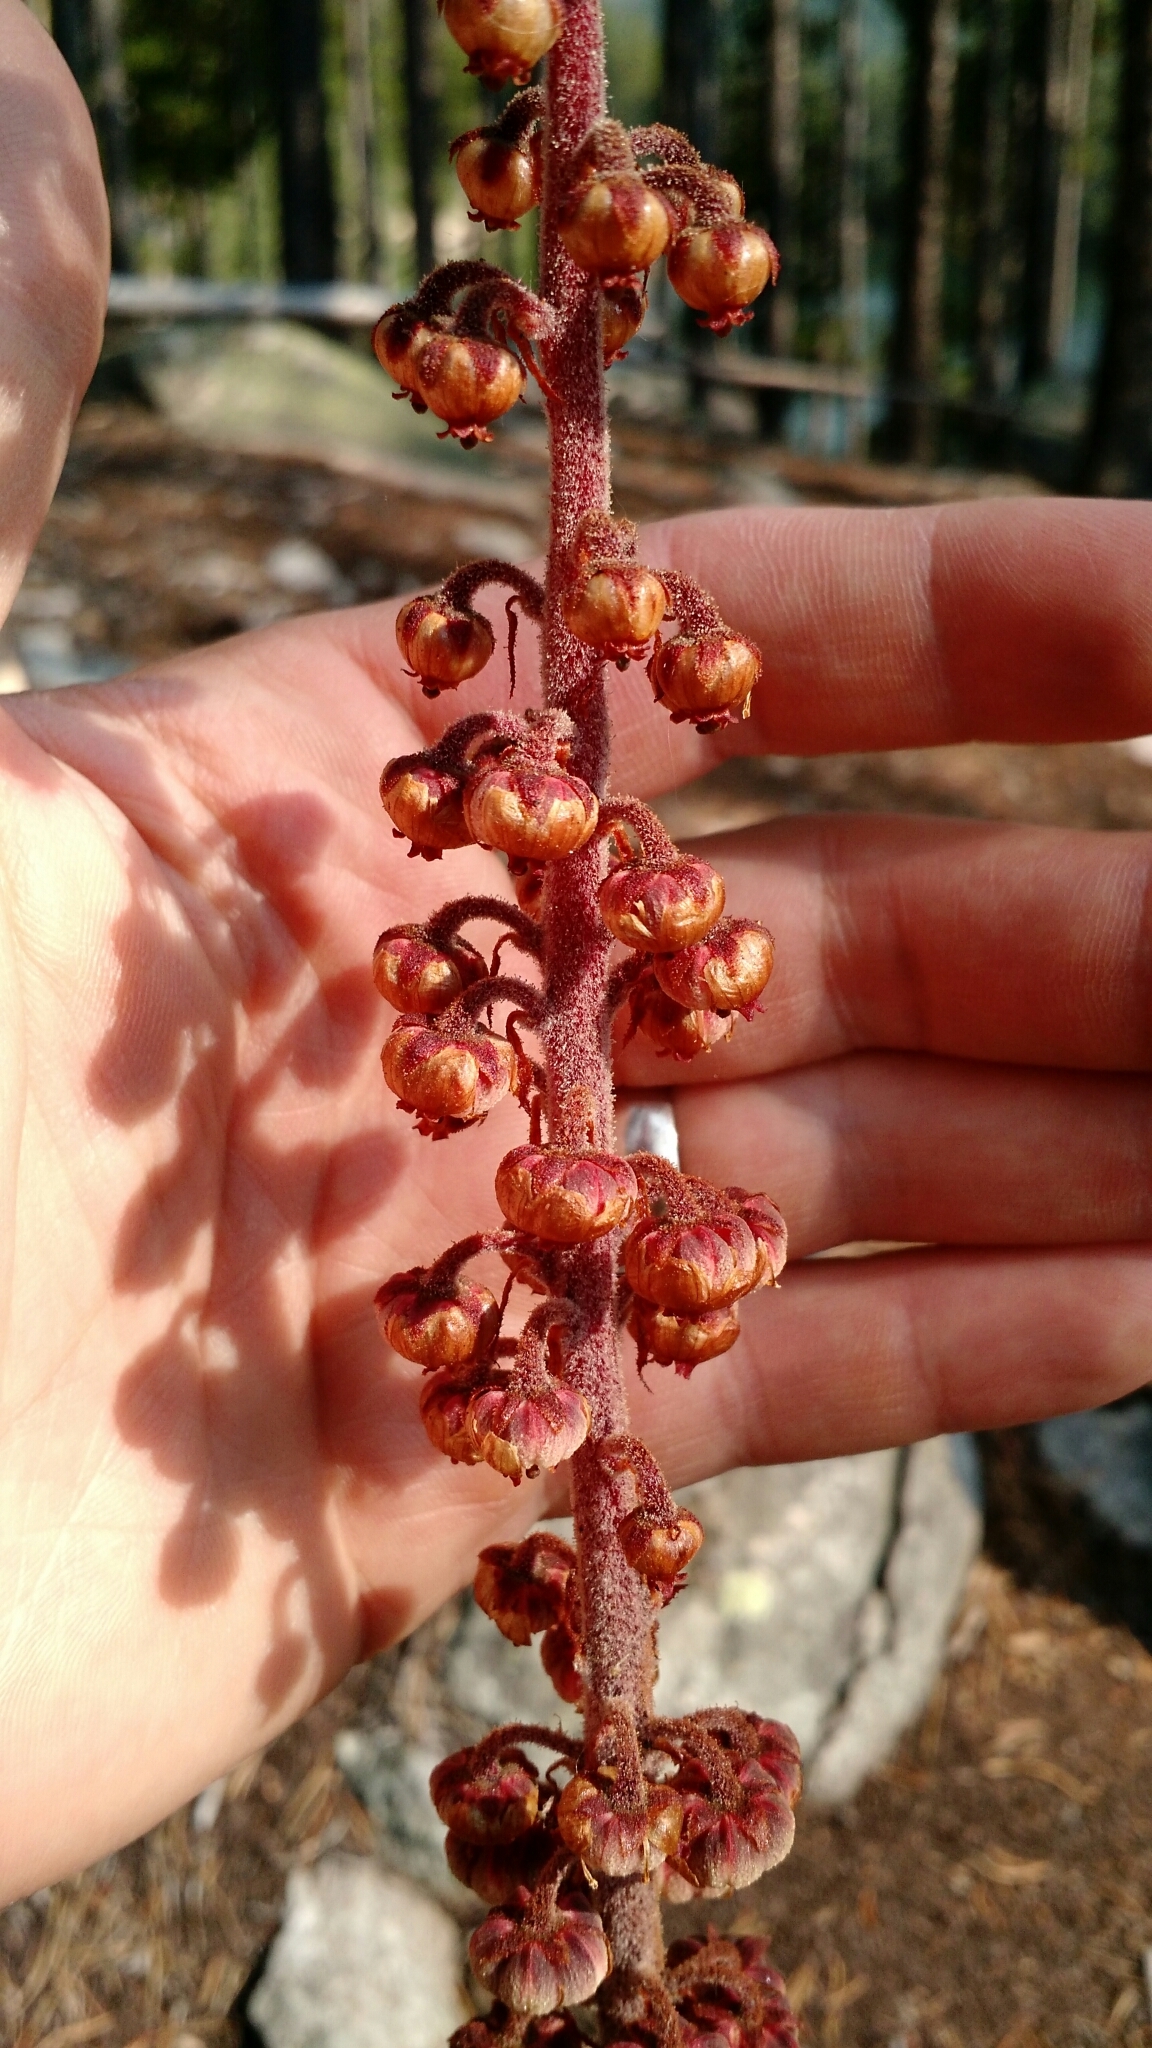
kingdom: Plantae
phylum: Tracheophyta
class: Magnoliopsida
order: Ericales
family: Ericaceae
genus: Pterospora
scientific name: Pterospora andromedea
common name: Giant bird's-nest
